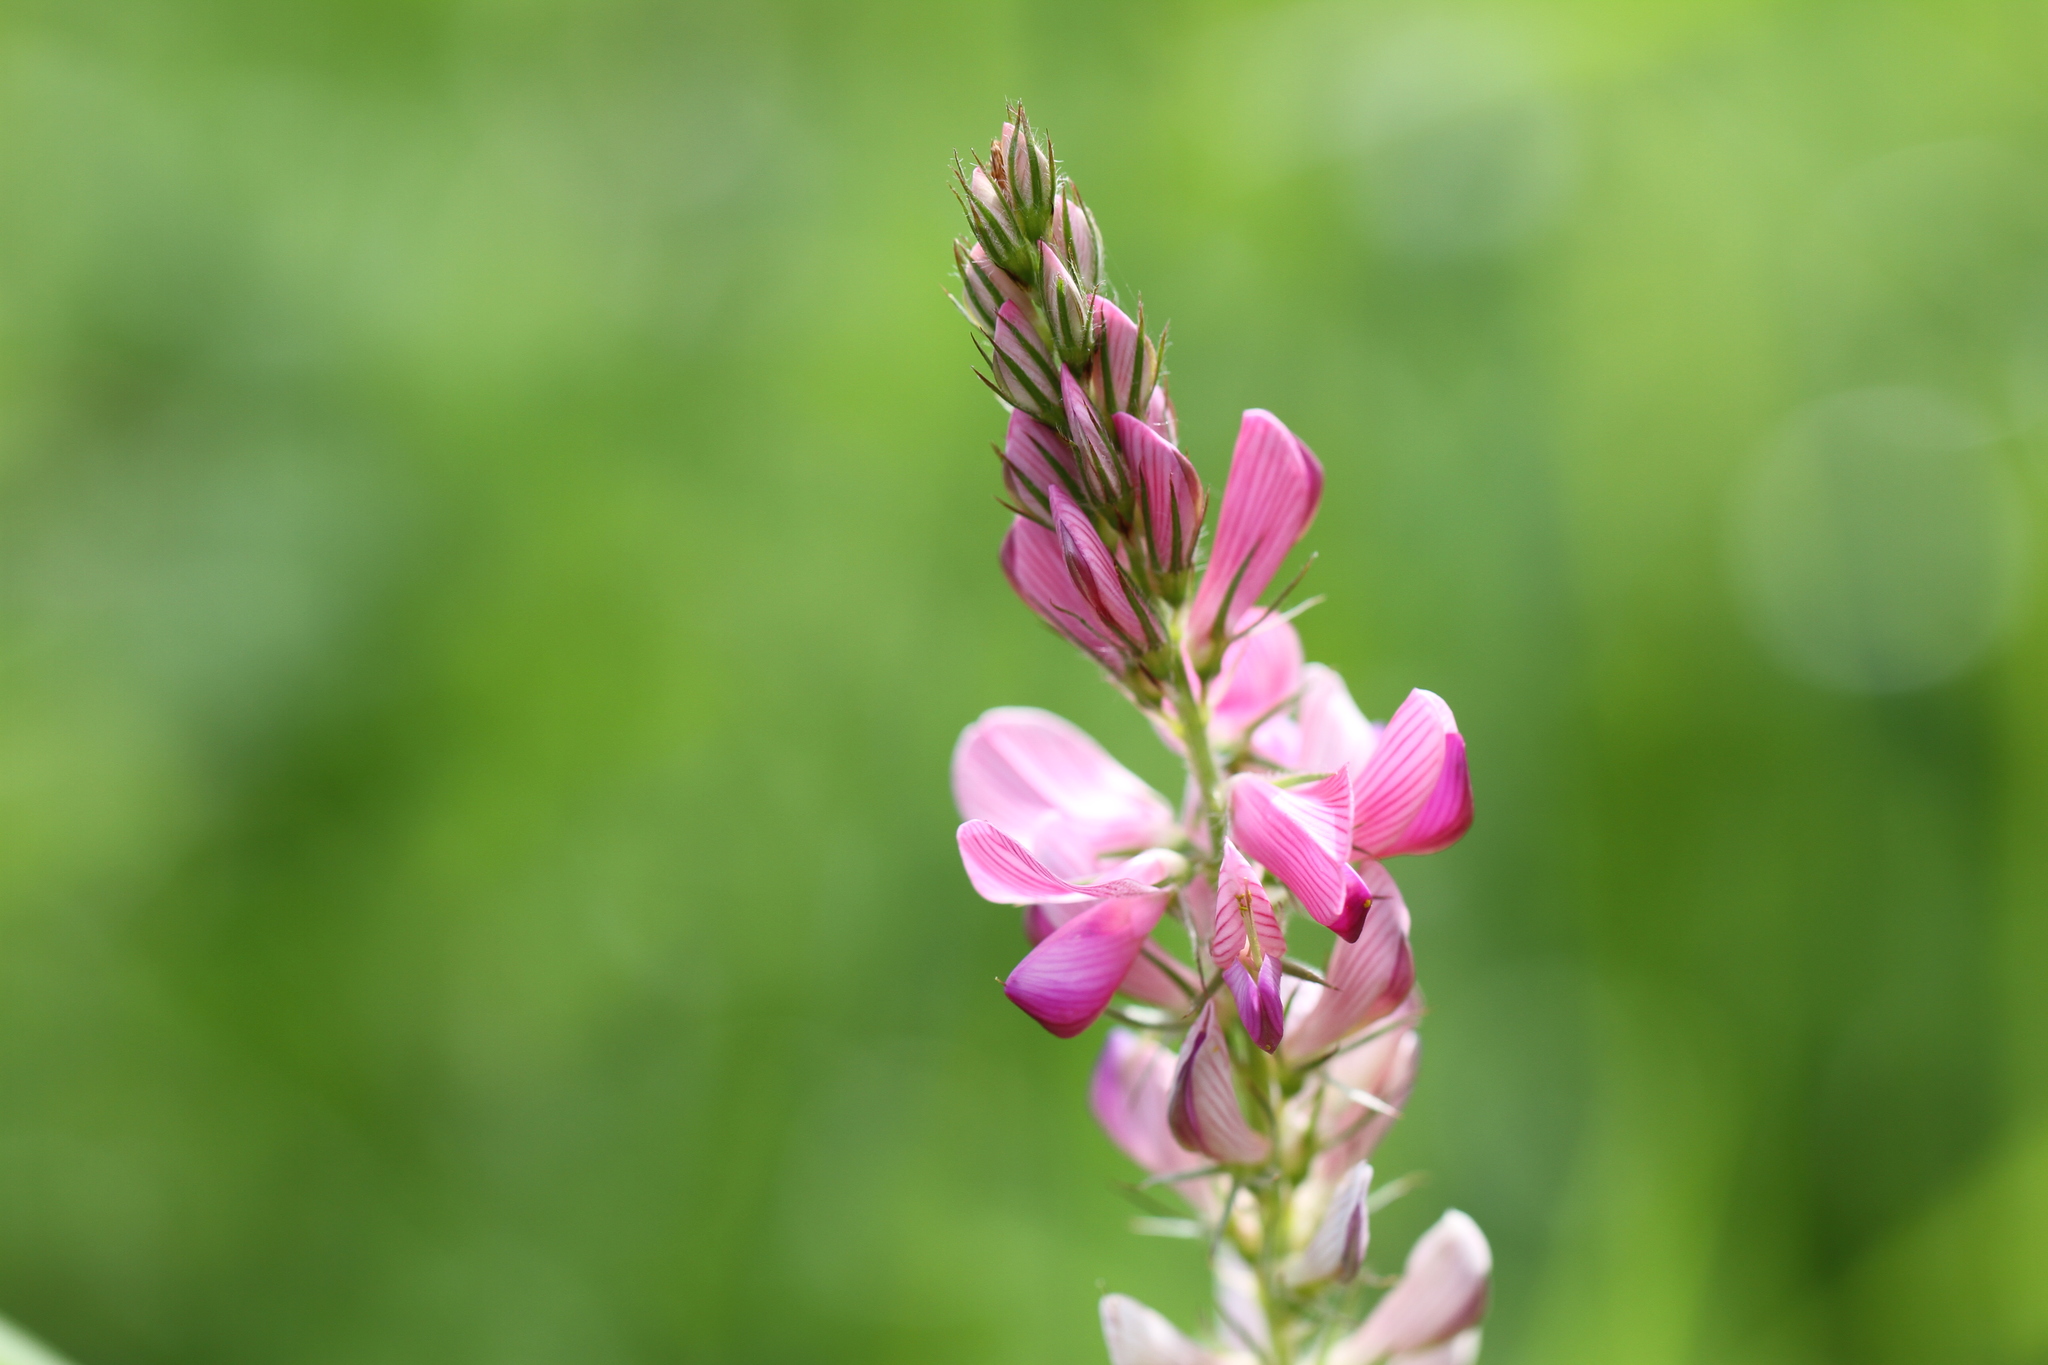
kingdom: Plantae
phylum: Tracheophyta
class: Magnoliopsida
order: Fabales
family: Fabaceae
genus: Onobrychis
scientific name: Onobrychis viciifolia
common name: Sainfoin
